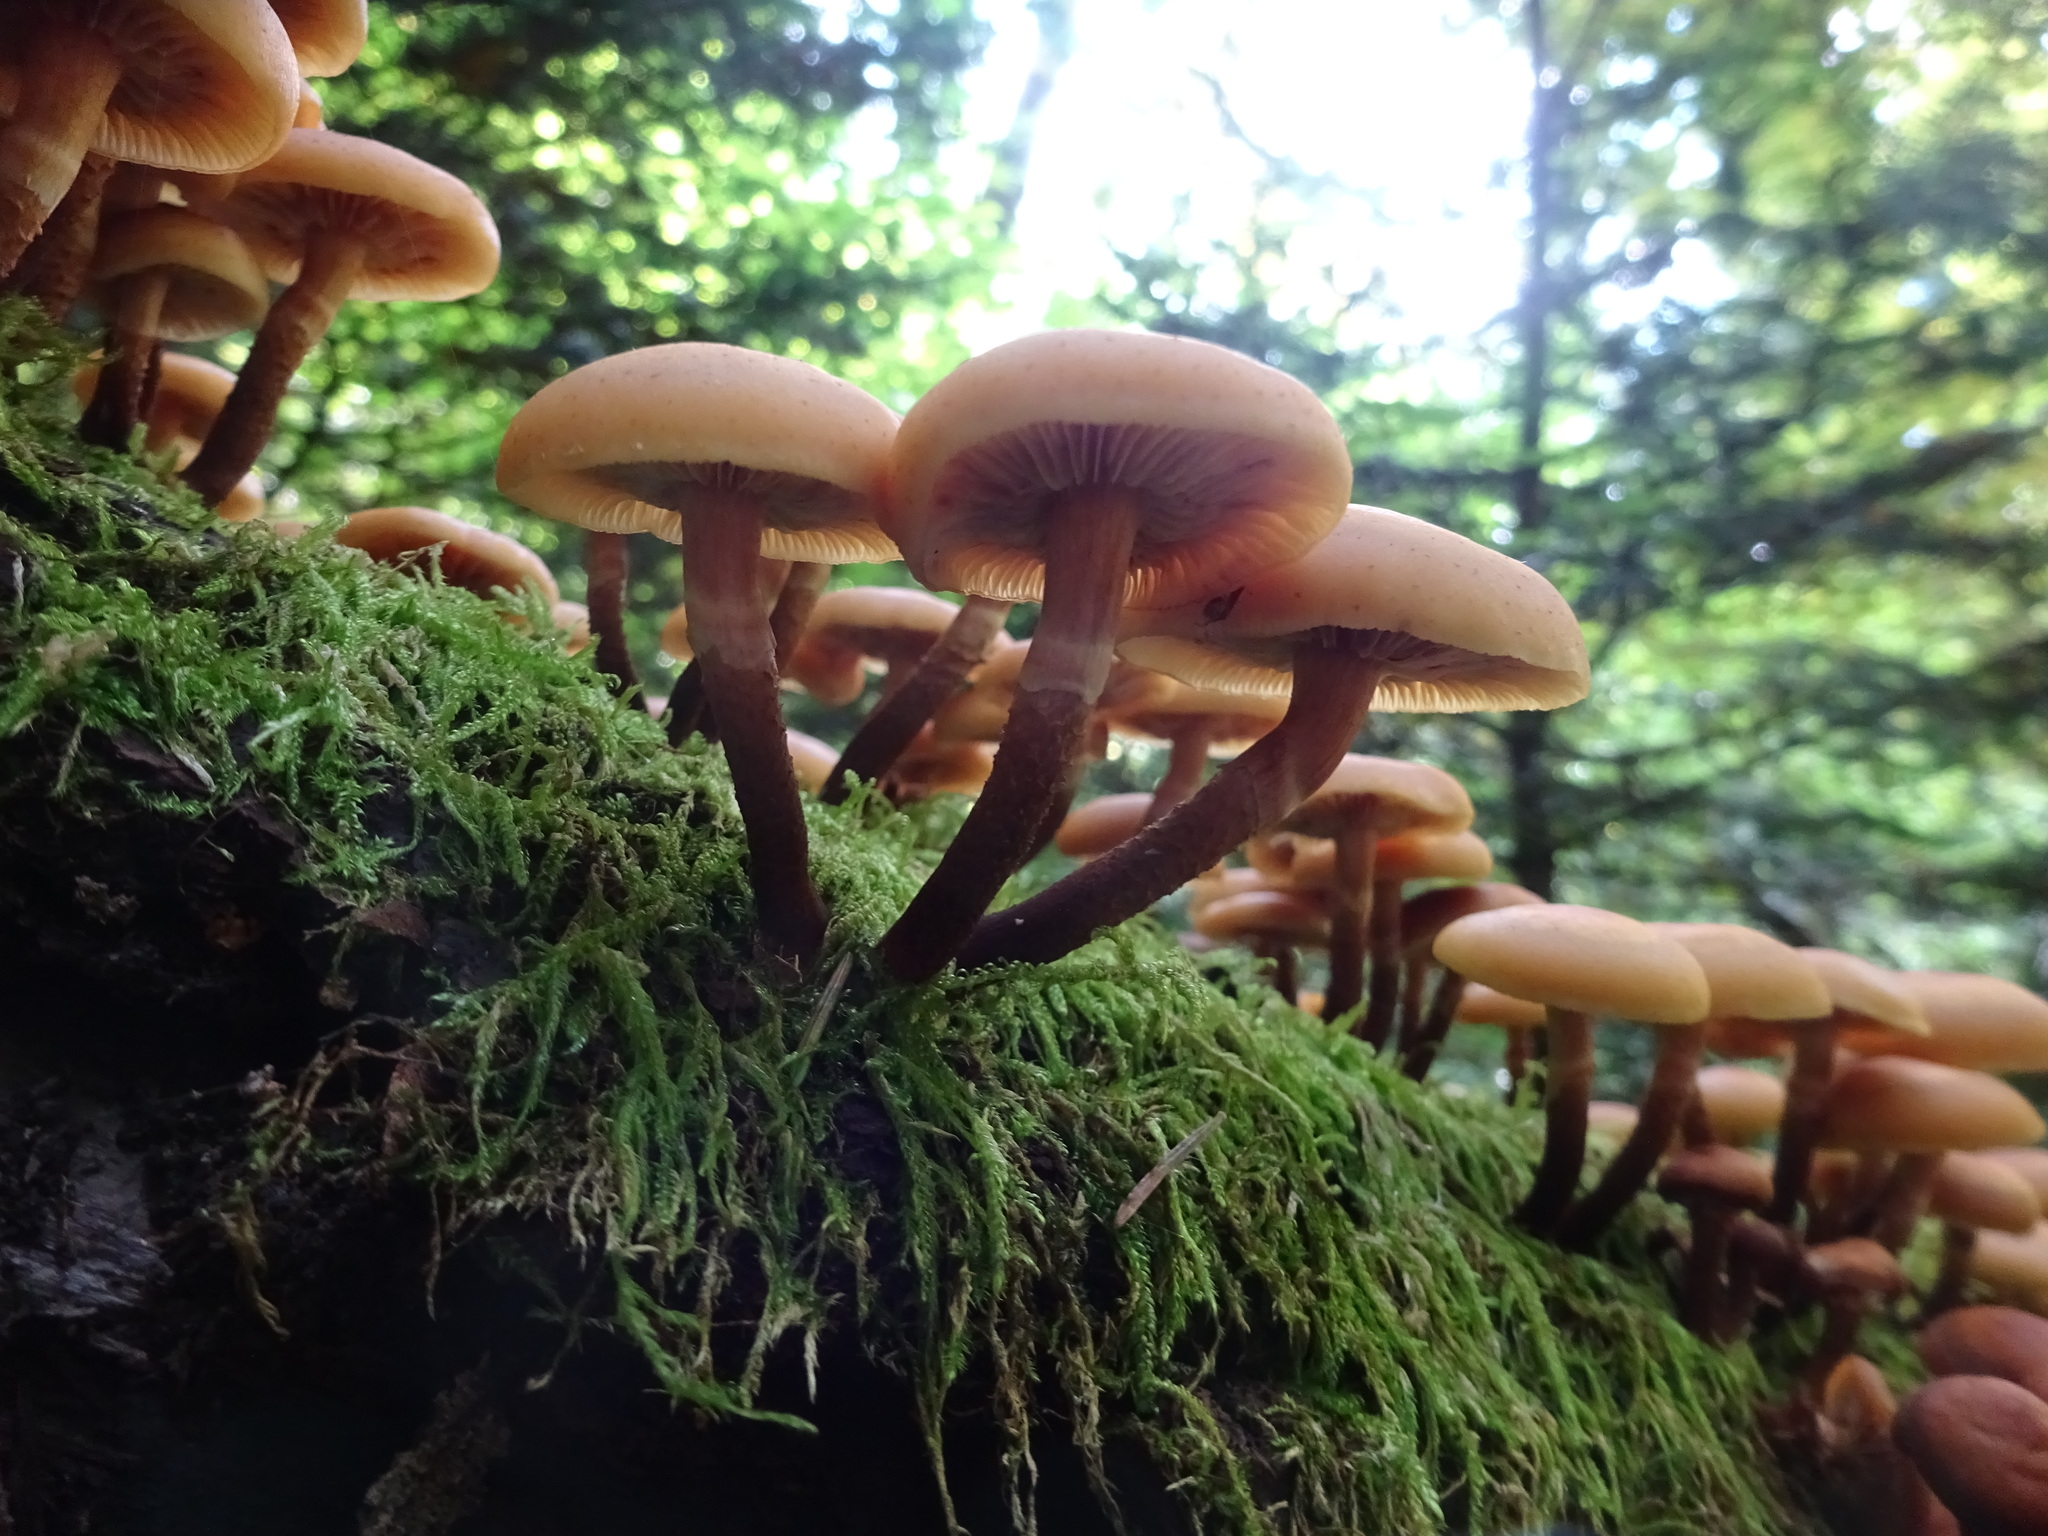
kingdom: Fungi
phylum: Basidiomycota
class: Agaricomycetes
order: Agaricales
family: Strophariaceae
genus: Kuehneromyces
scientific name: Kuehneromyces mutabilis
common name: Sheathed woodtuft
